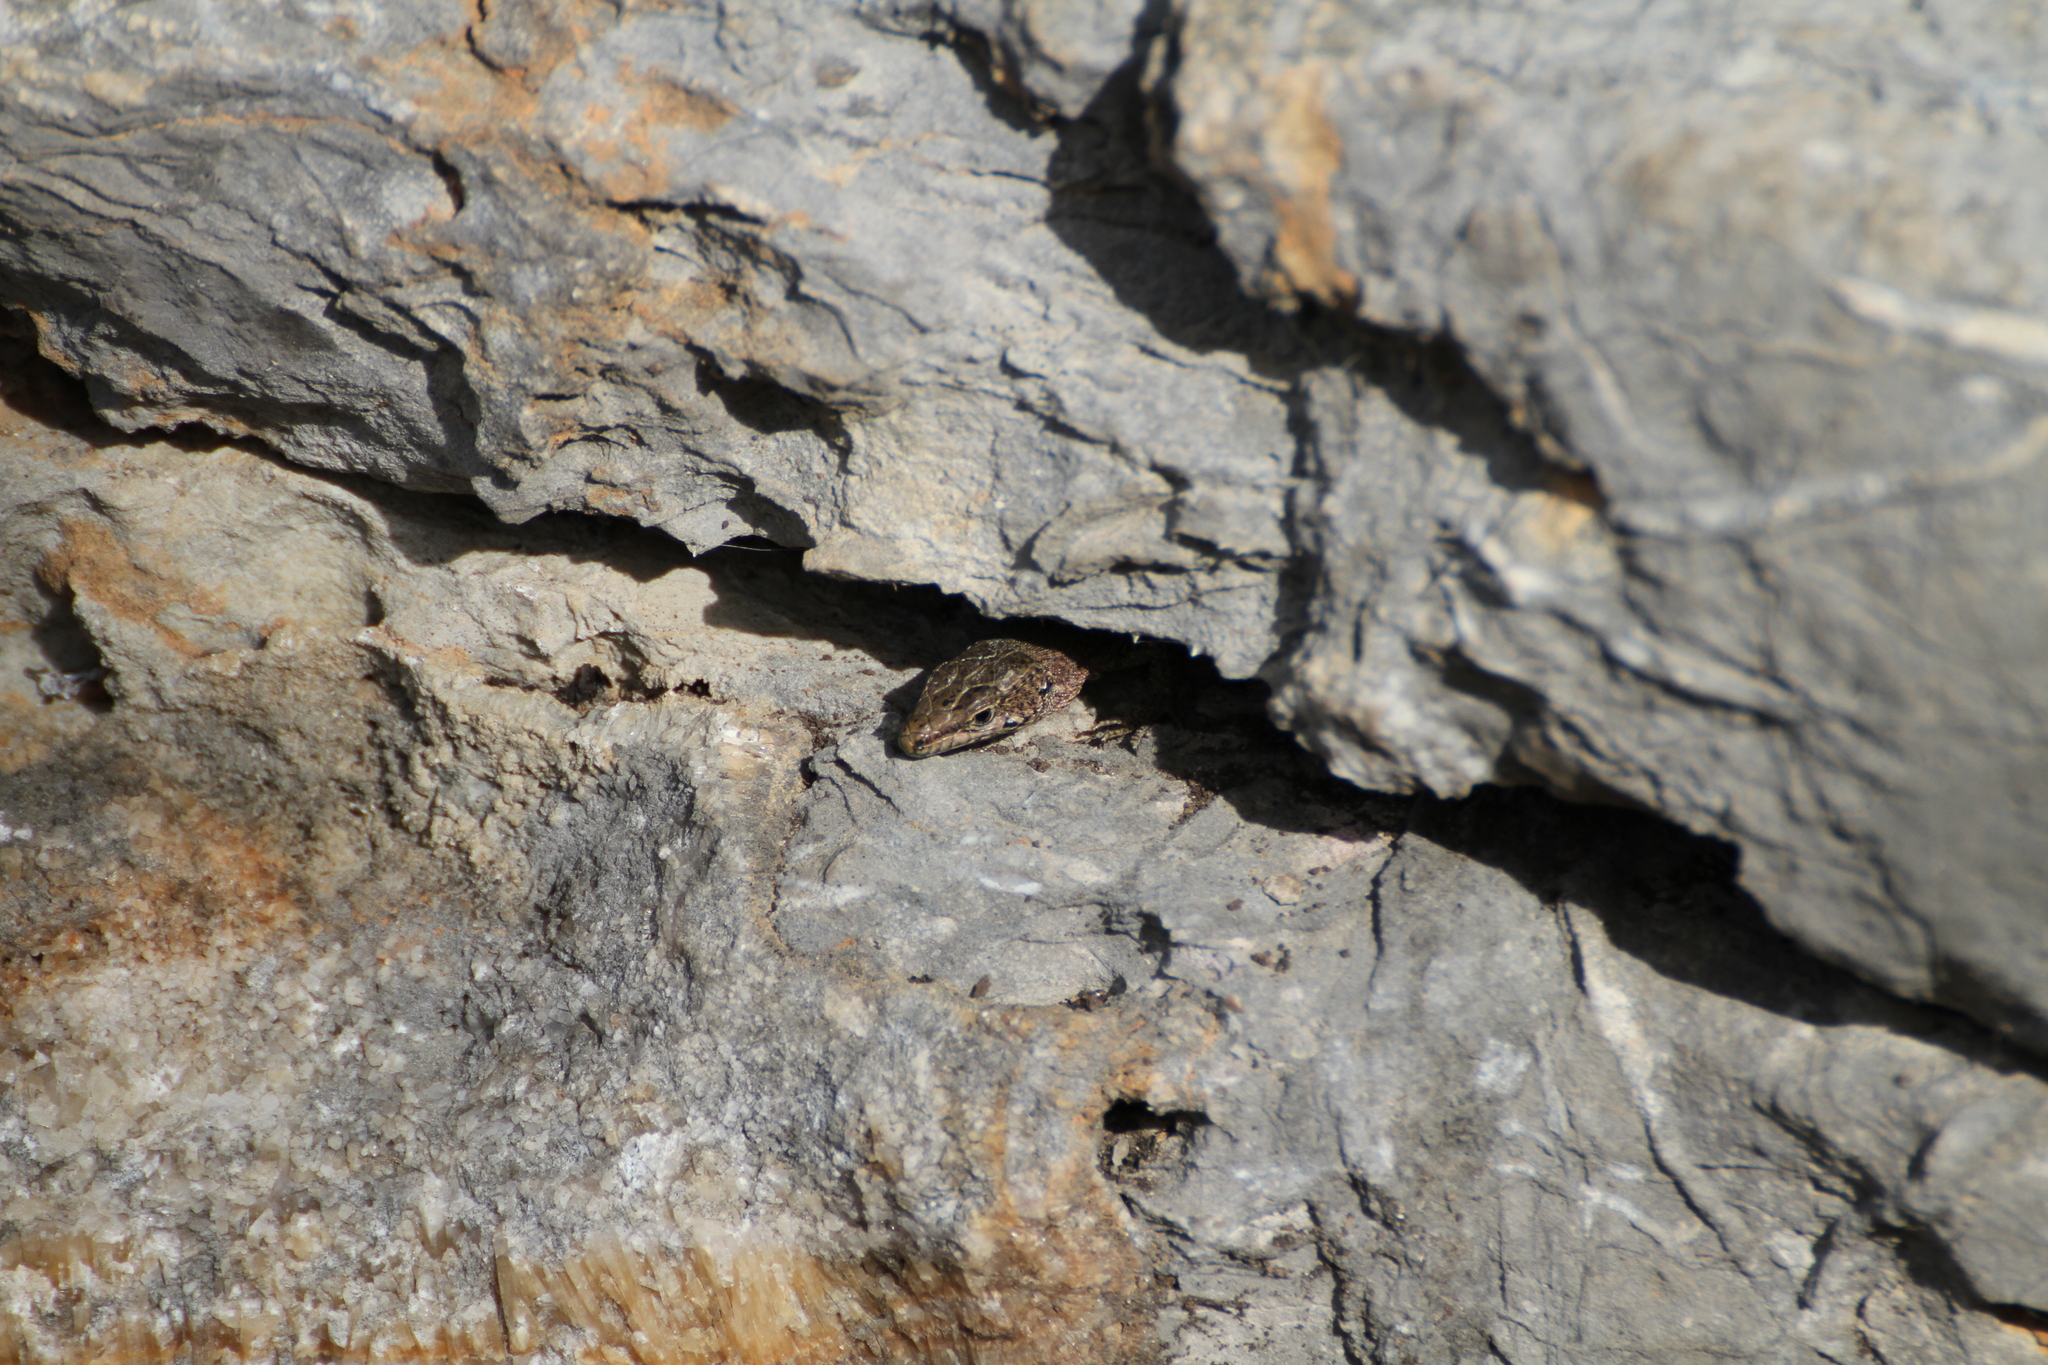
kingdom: Animalia
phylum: Chordata
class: Squamata
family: Lacertidae
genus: Podarcis
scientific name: Podarcis liolepis
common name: Catalonian wall lizard
